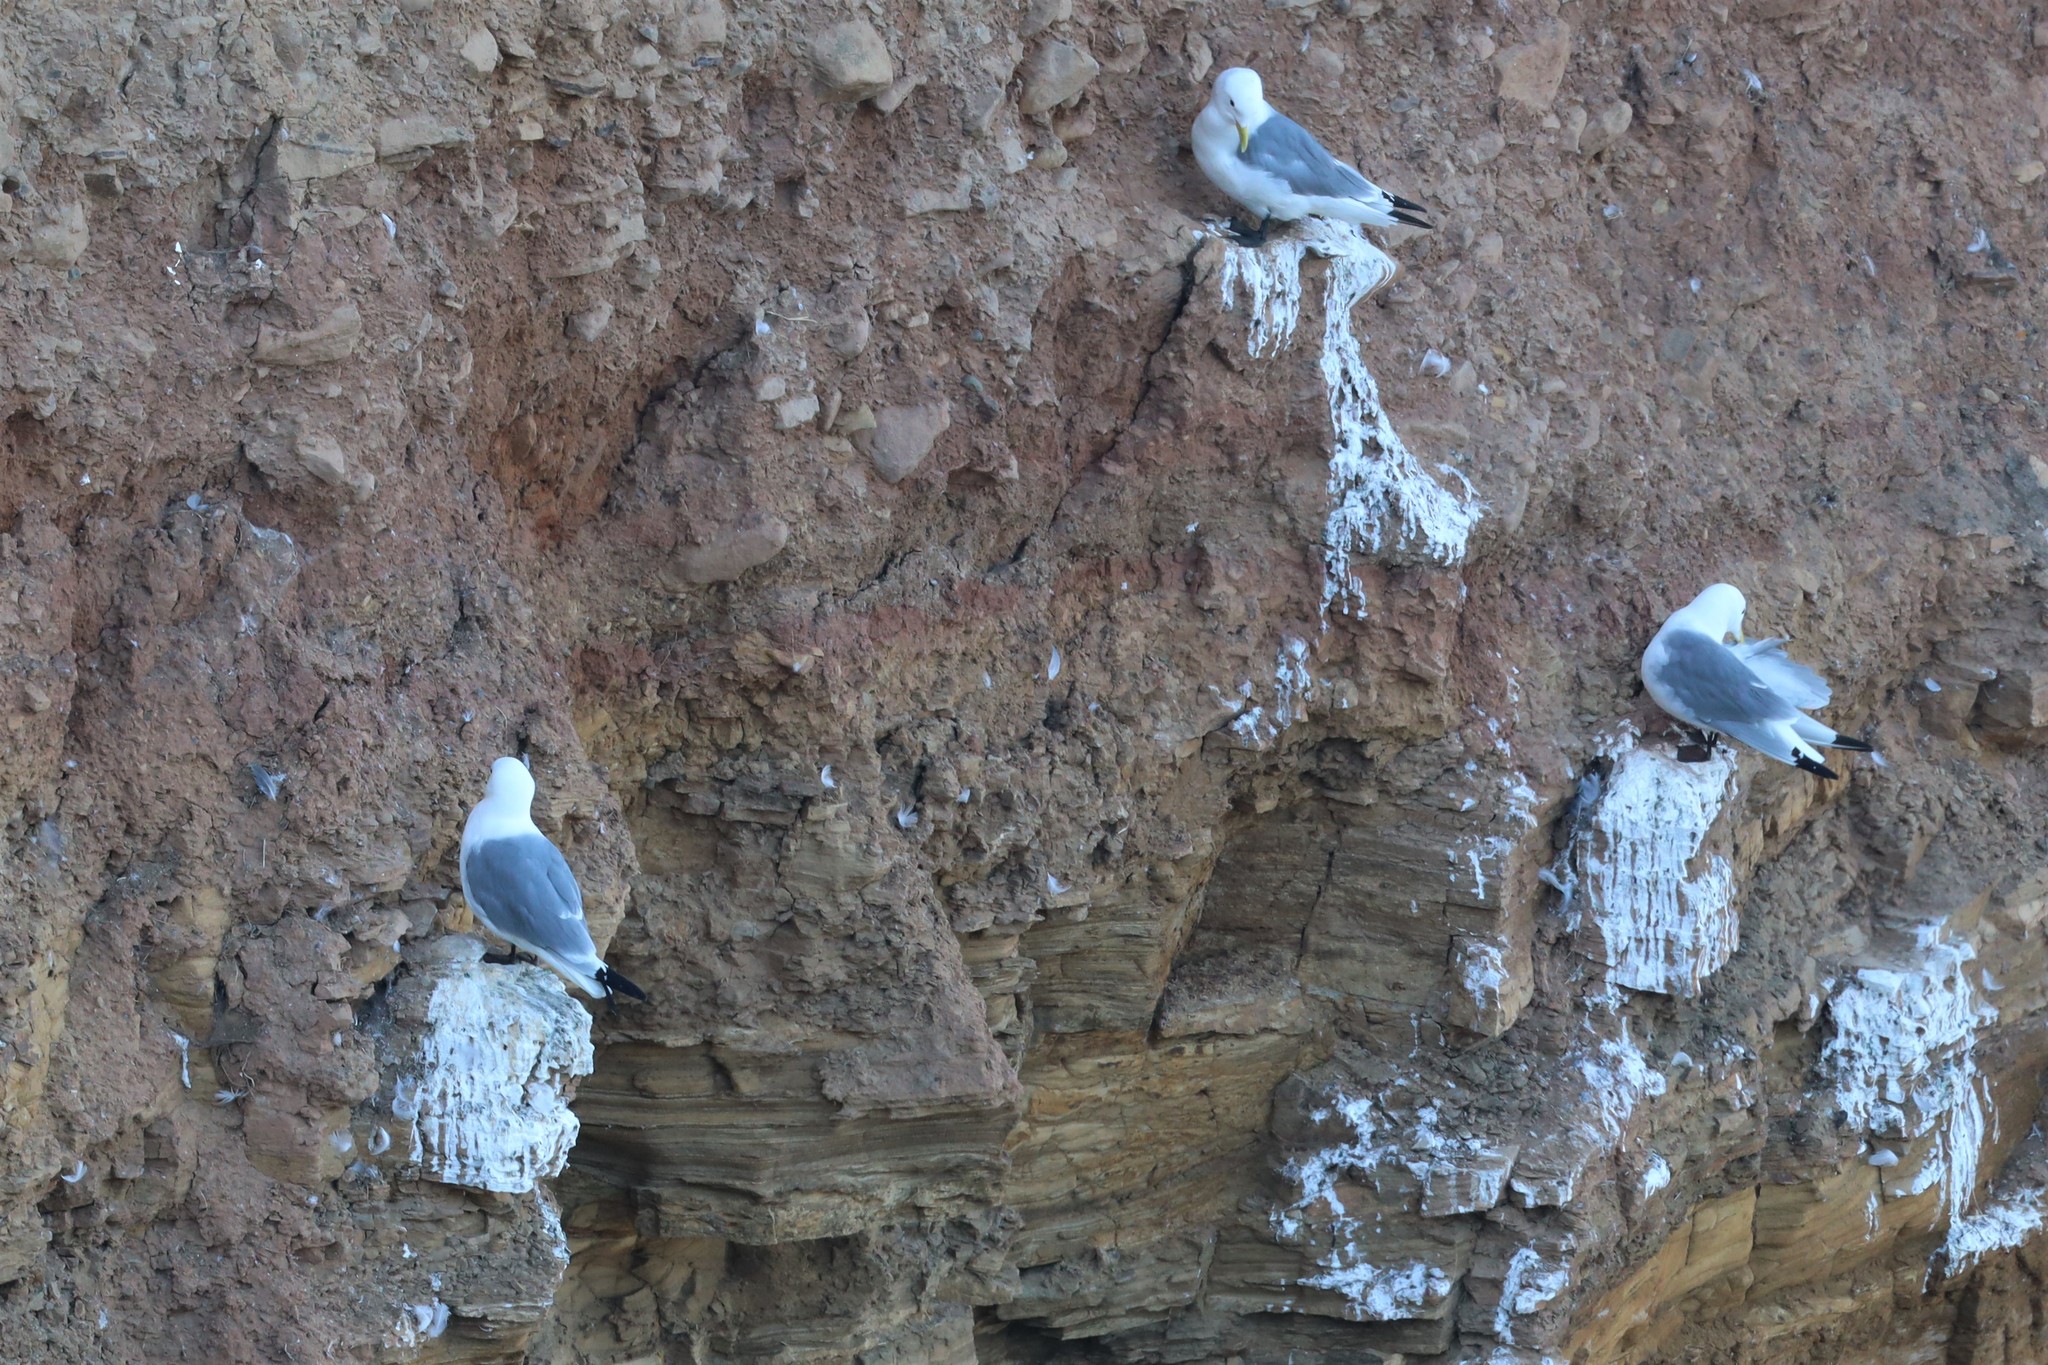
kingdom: Animalia
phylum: Chordata
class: Aves
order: Charadriiformes
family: Laridae
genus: Rissa
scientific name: Rissa tridactyla
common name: Black-legged kittiwake
